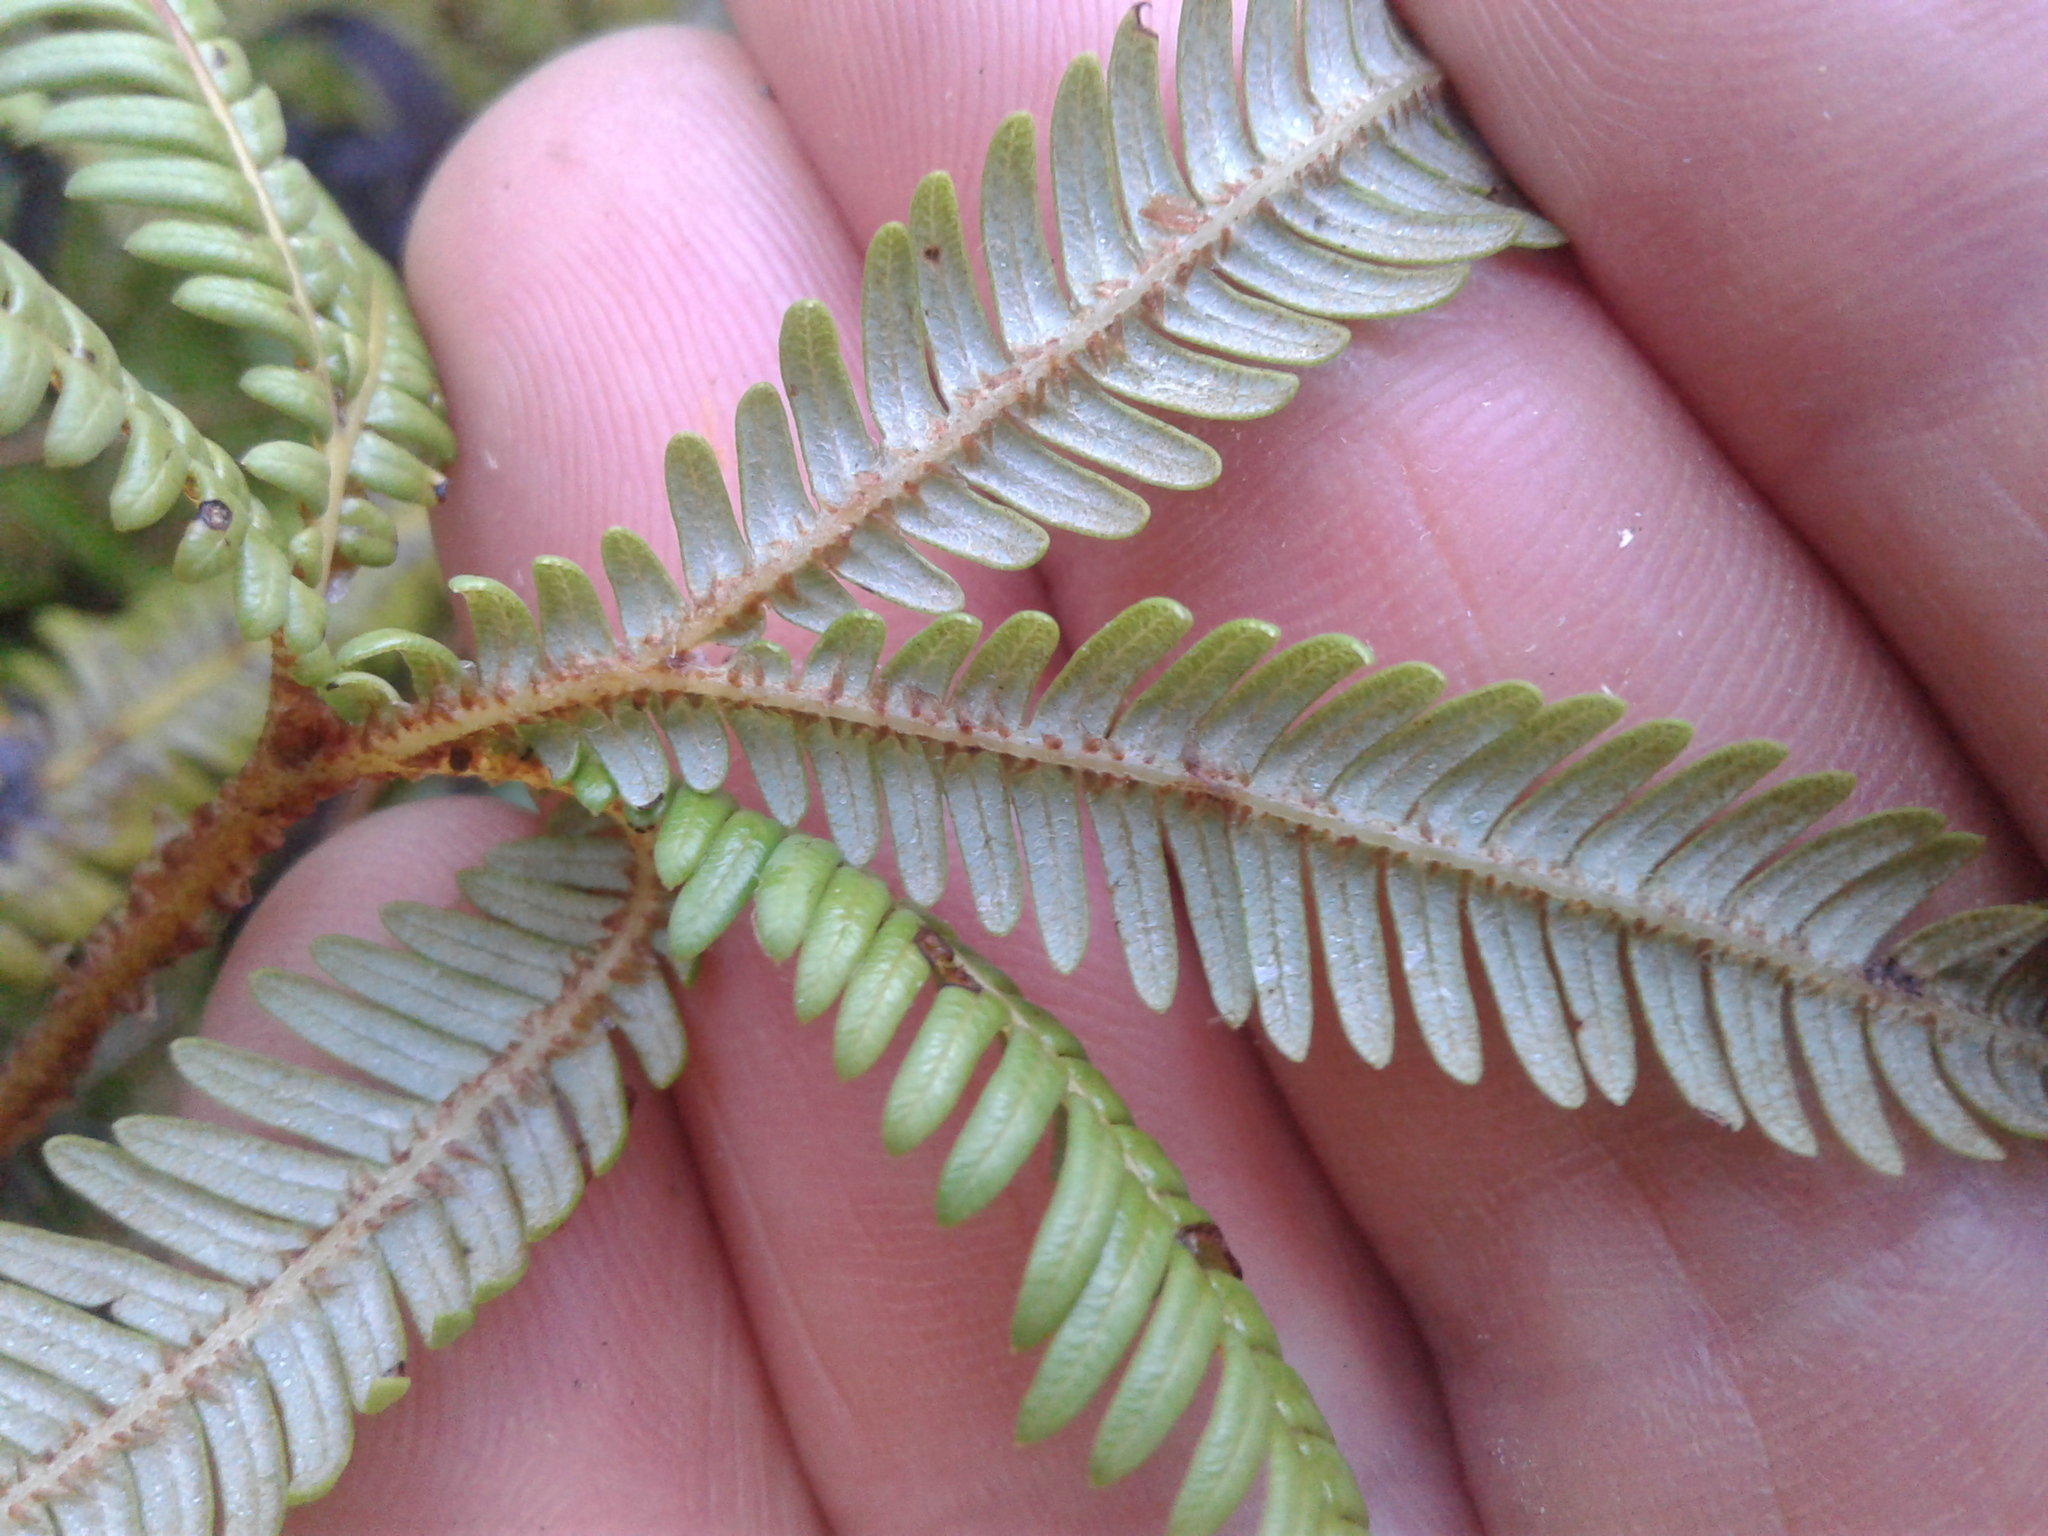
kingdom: Plantae
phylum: Tracheophyta
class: Polypodiopsida
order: Gleicheniales
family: Gleicheniaceae
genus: Sticherus
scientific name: Sticherus cunninghamii
